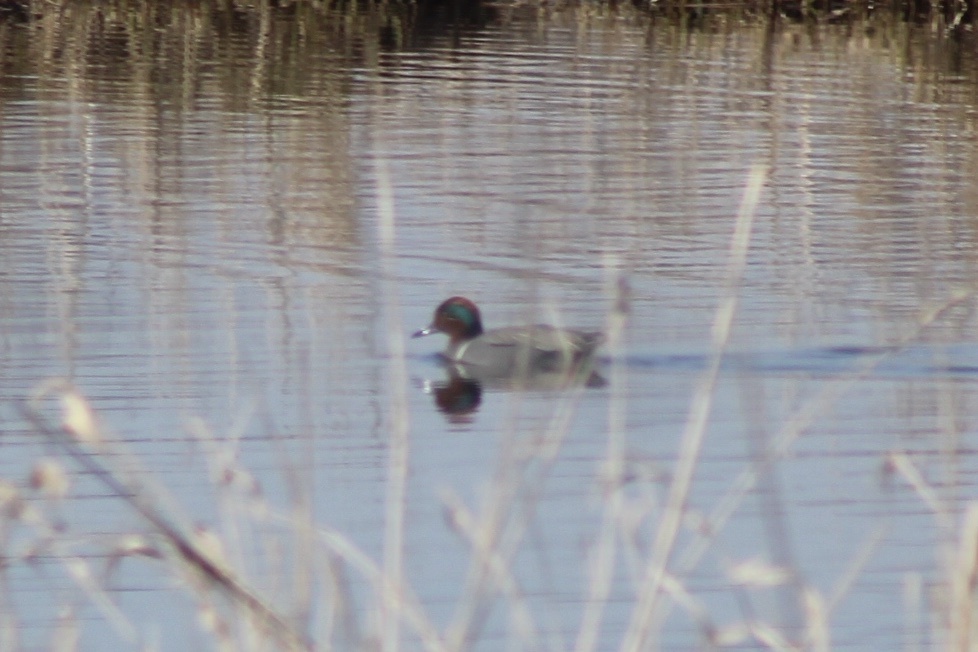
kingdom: Animalia
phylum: Chordata
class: Aves
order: Anseriformes
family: Anatidae
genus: Anas
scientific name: Anas crecca
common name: Eurasian teal
